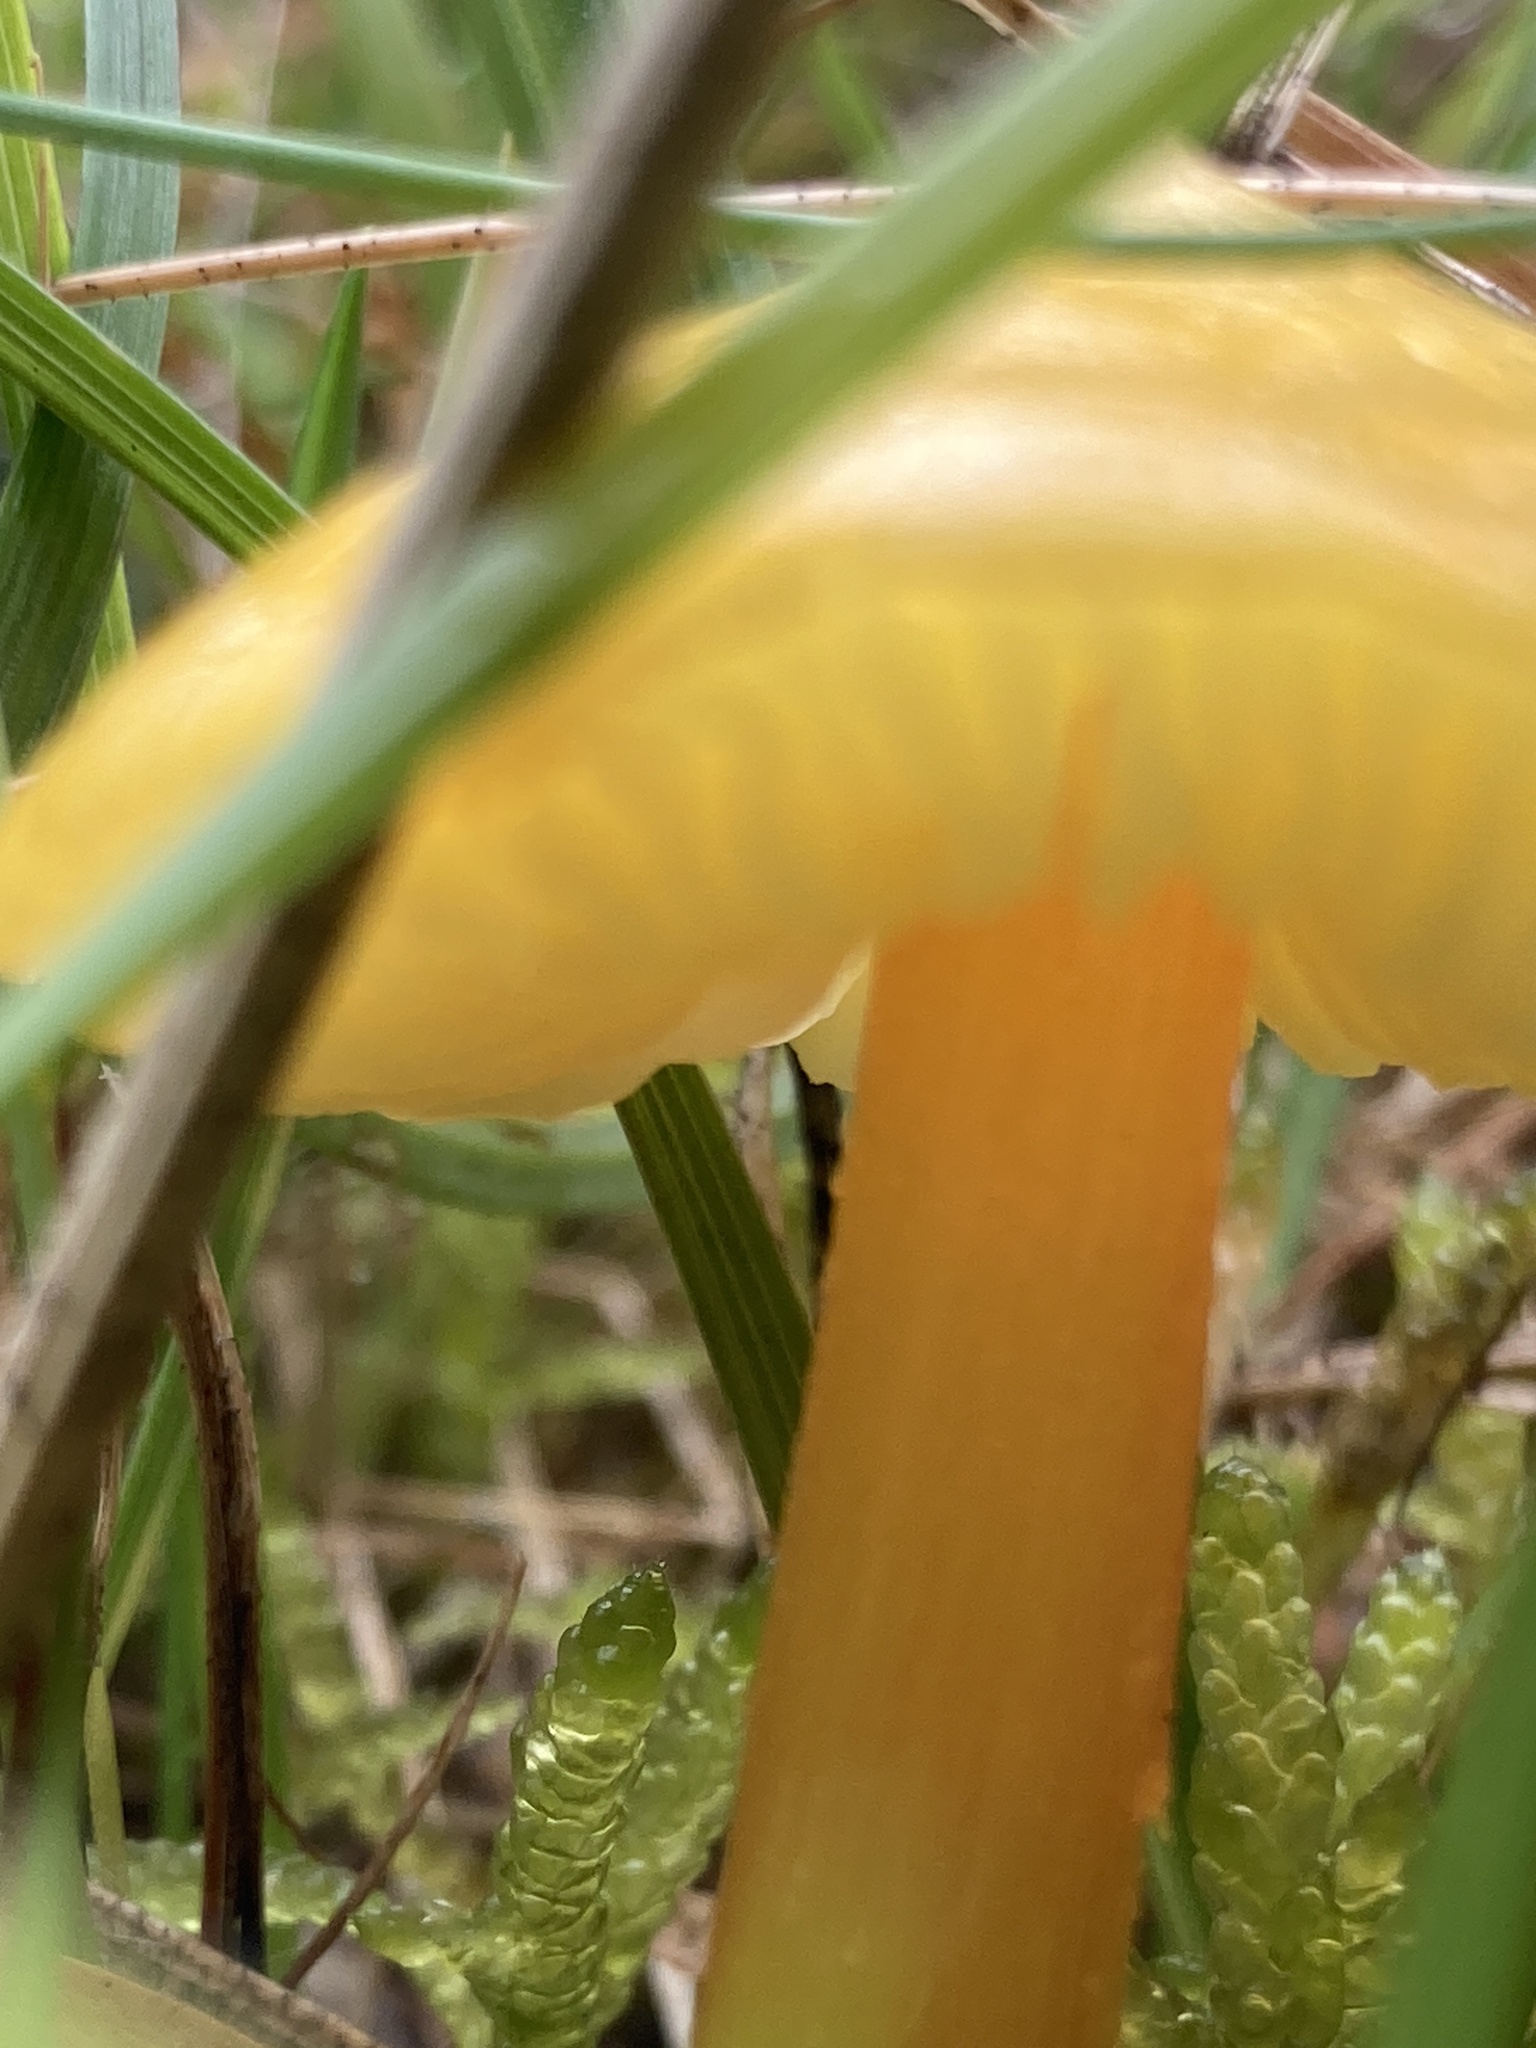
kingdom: Fungi
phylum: Basidiomycota
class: Agaricomycetes
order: Agaricales
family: Hygrophoraceae
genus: Hygrocybe
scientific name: Hygrocybe acutoconica
